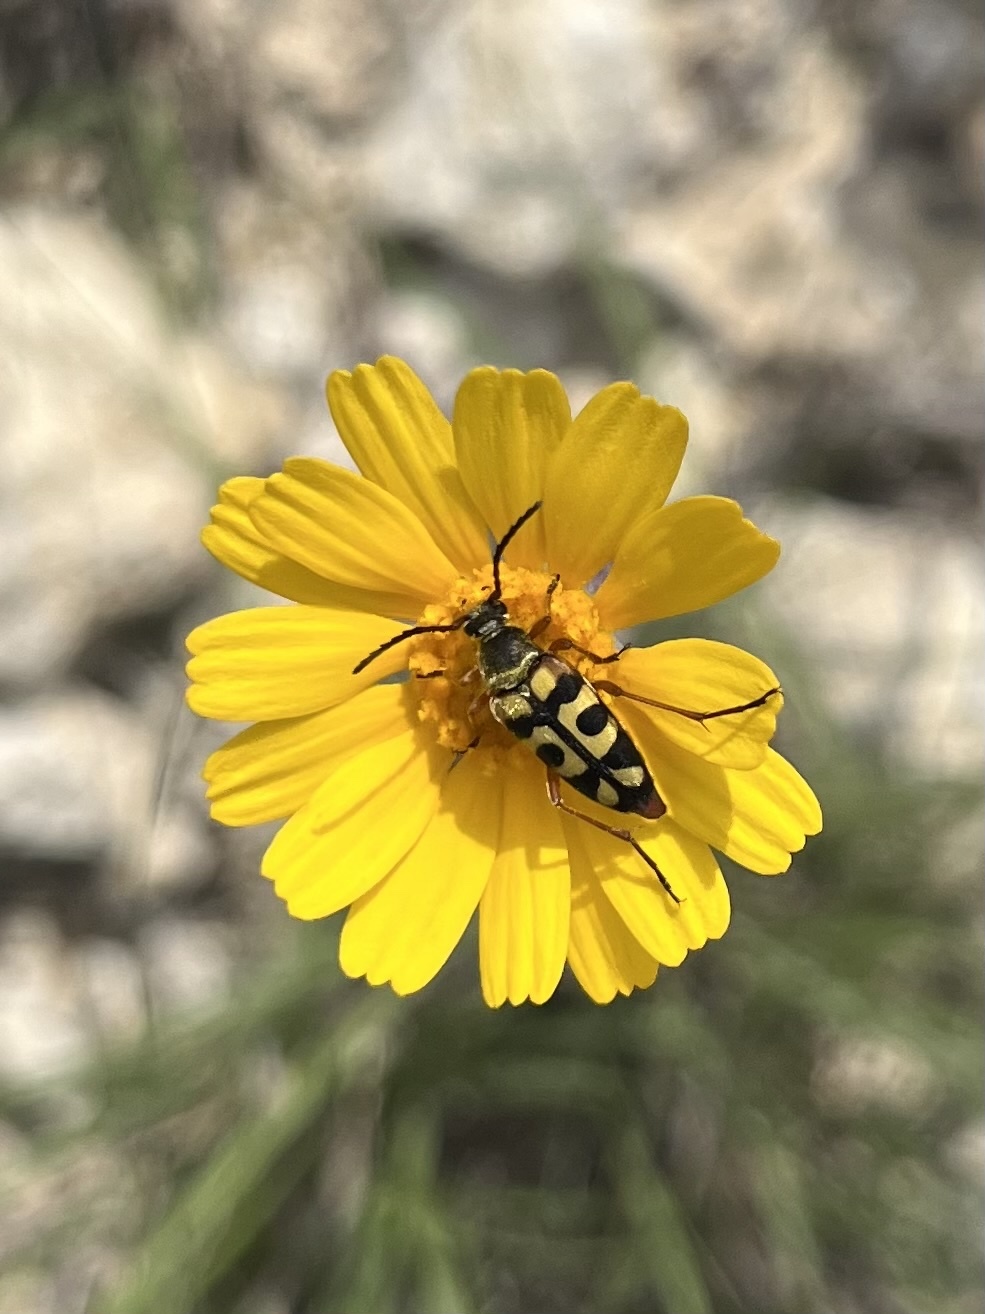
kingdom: Animalia
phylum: Arthropoda
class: Insecta
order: Coleoptera
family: Cerambycidae
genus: Typocerus
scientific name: Typocerus sinuatus
